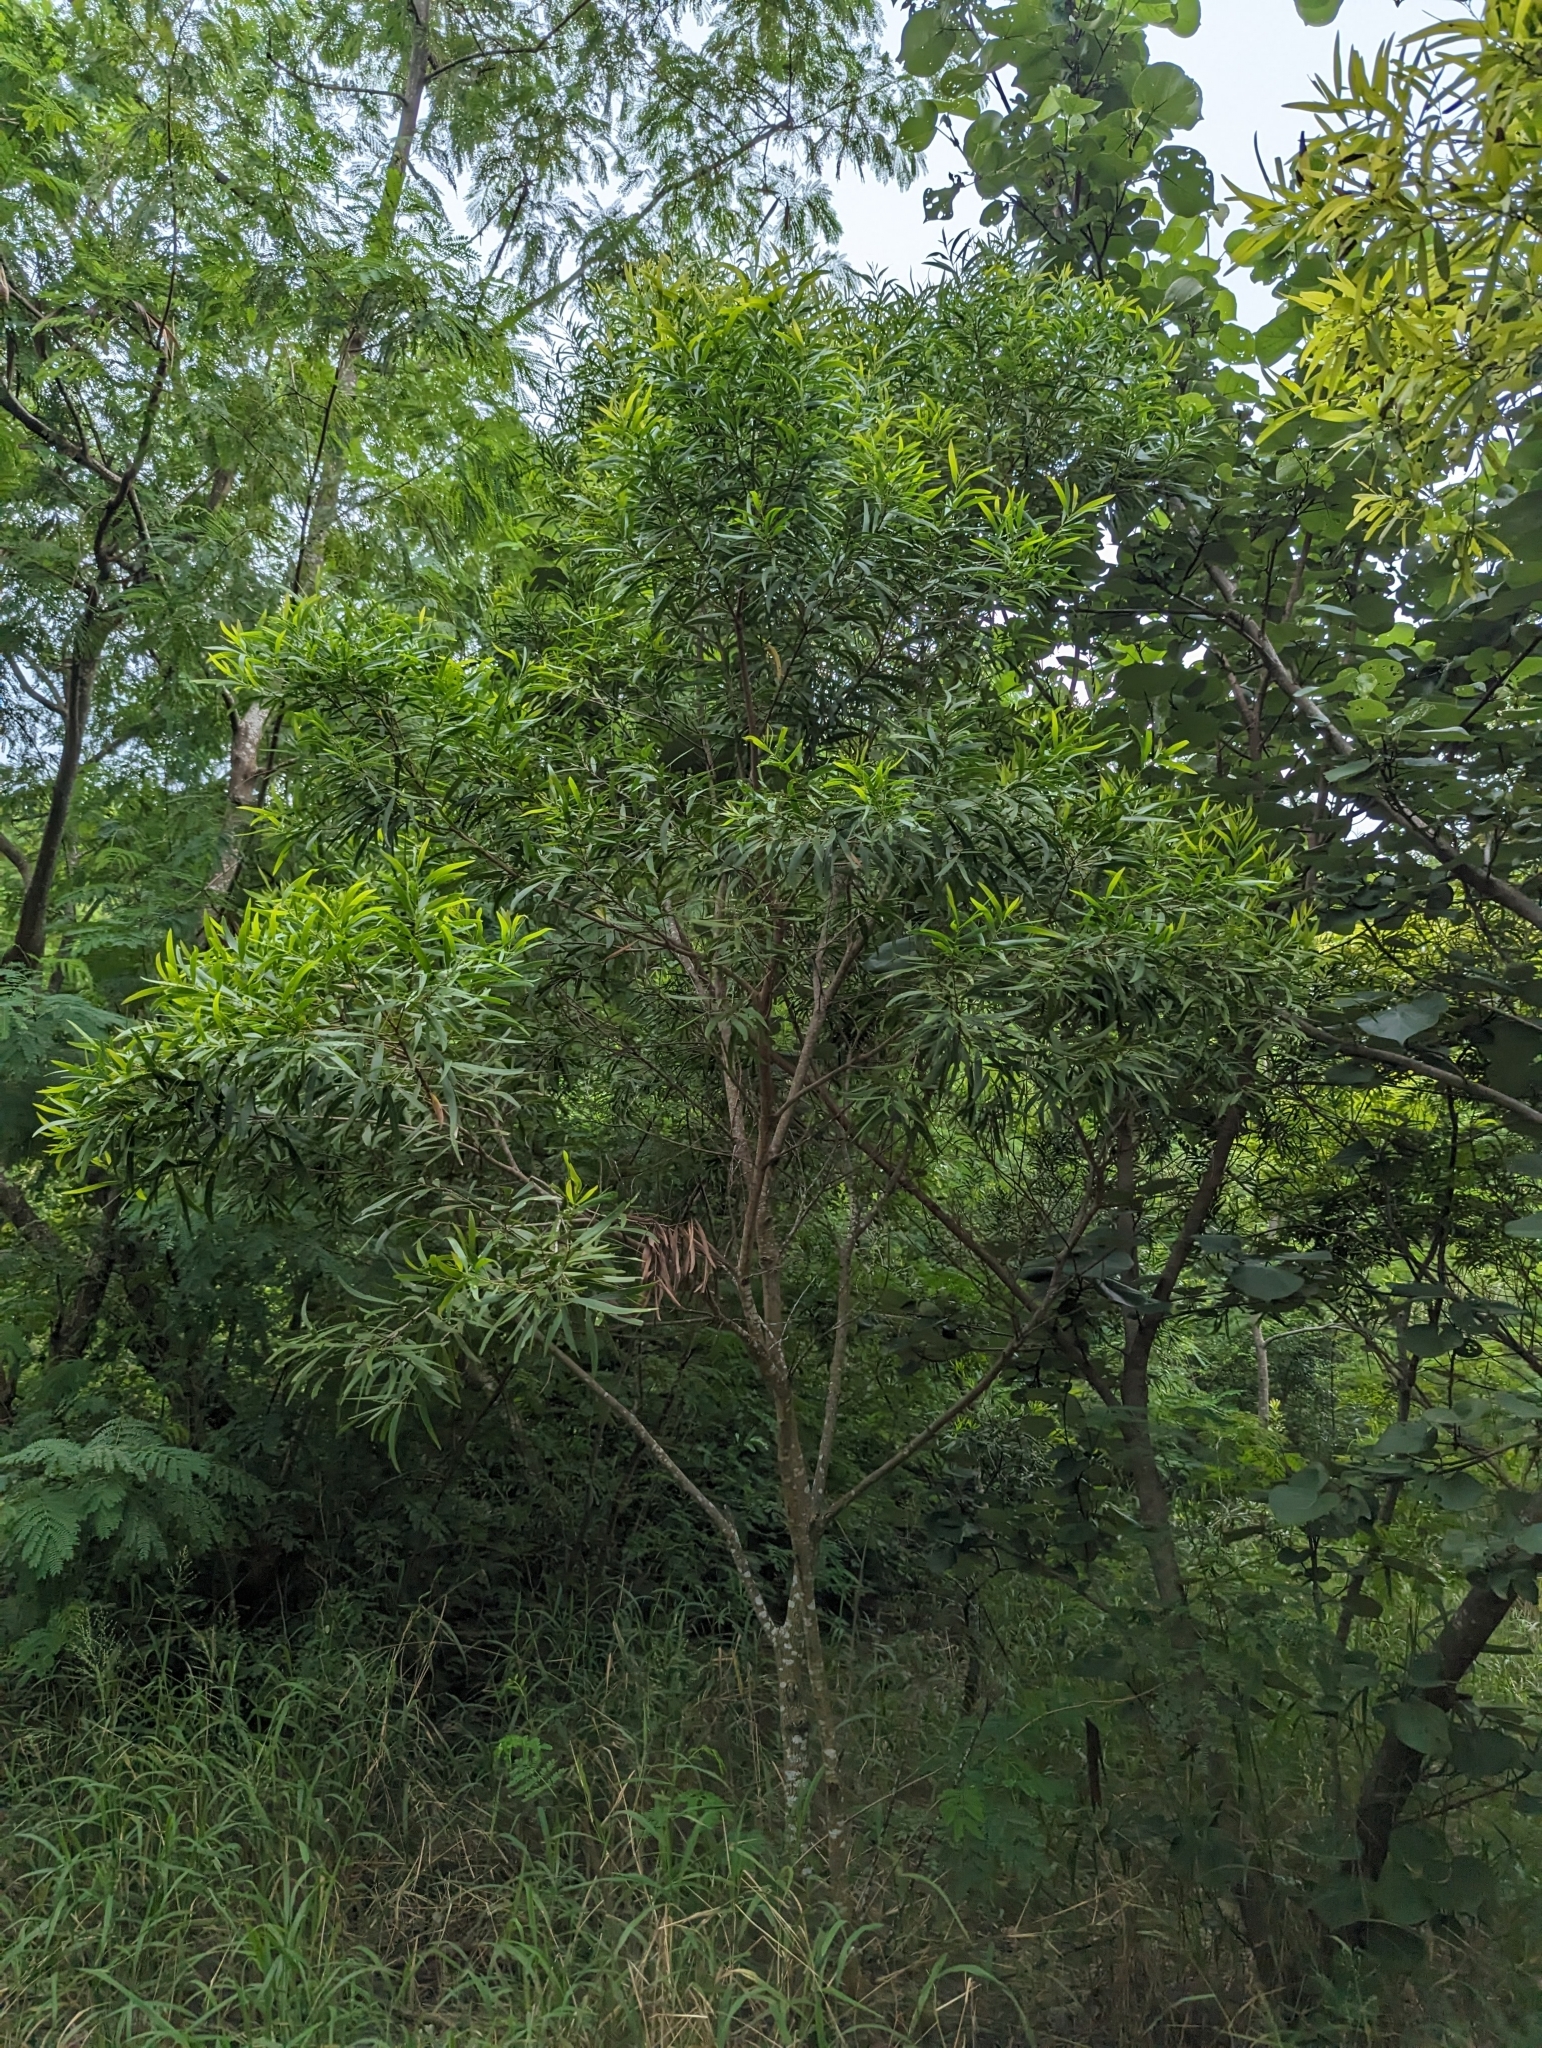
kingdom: Plantae
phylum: Tracheophyta
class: Magnoliopsida
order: Fabales
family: Fabaceae
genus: Acacia
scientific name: Acacia confusa
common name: Formosan koa
